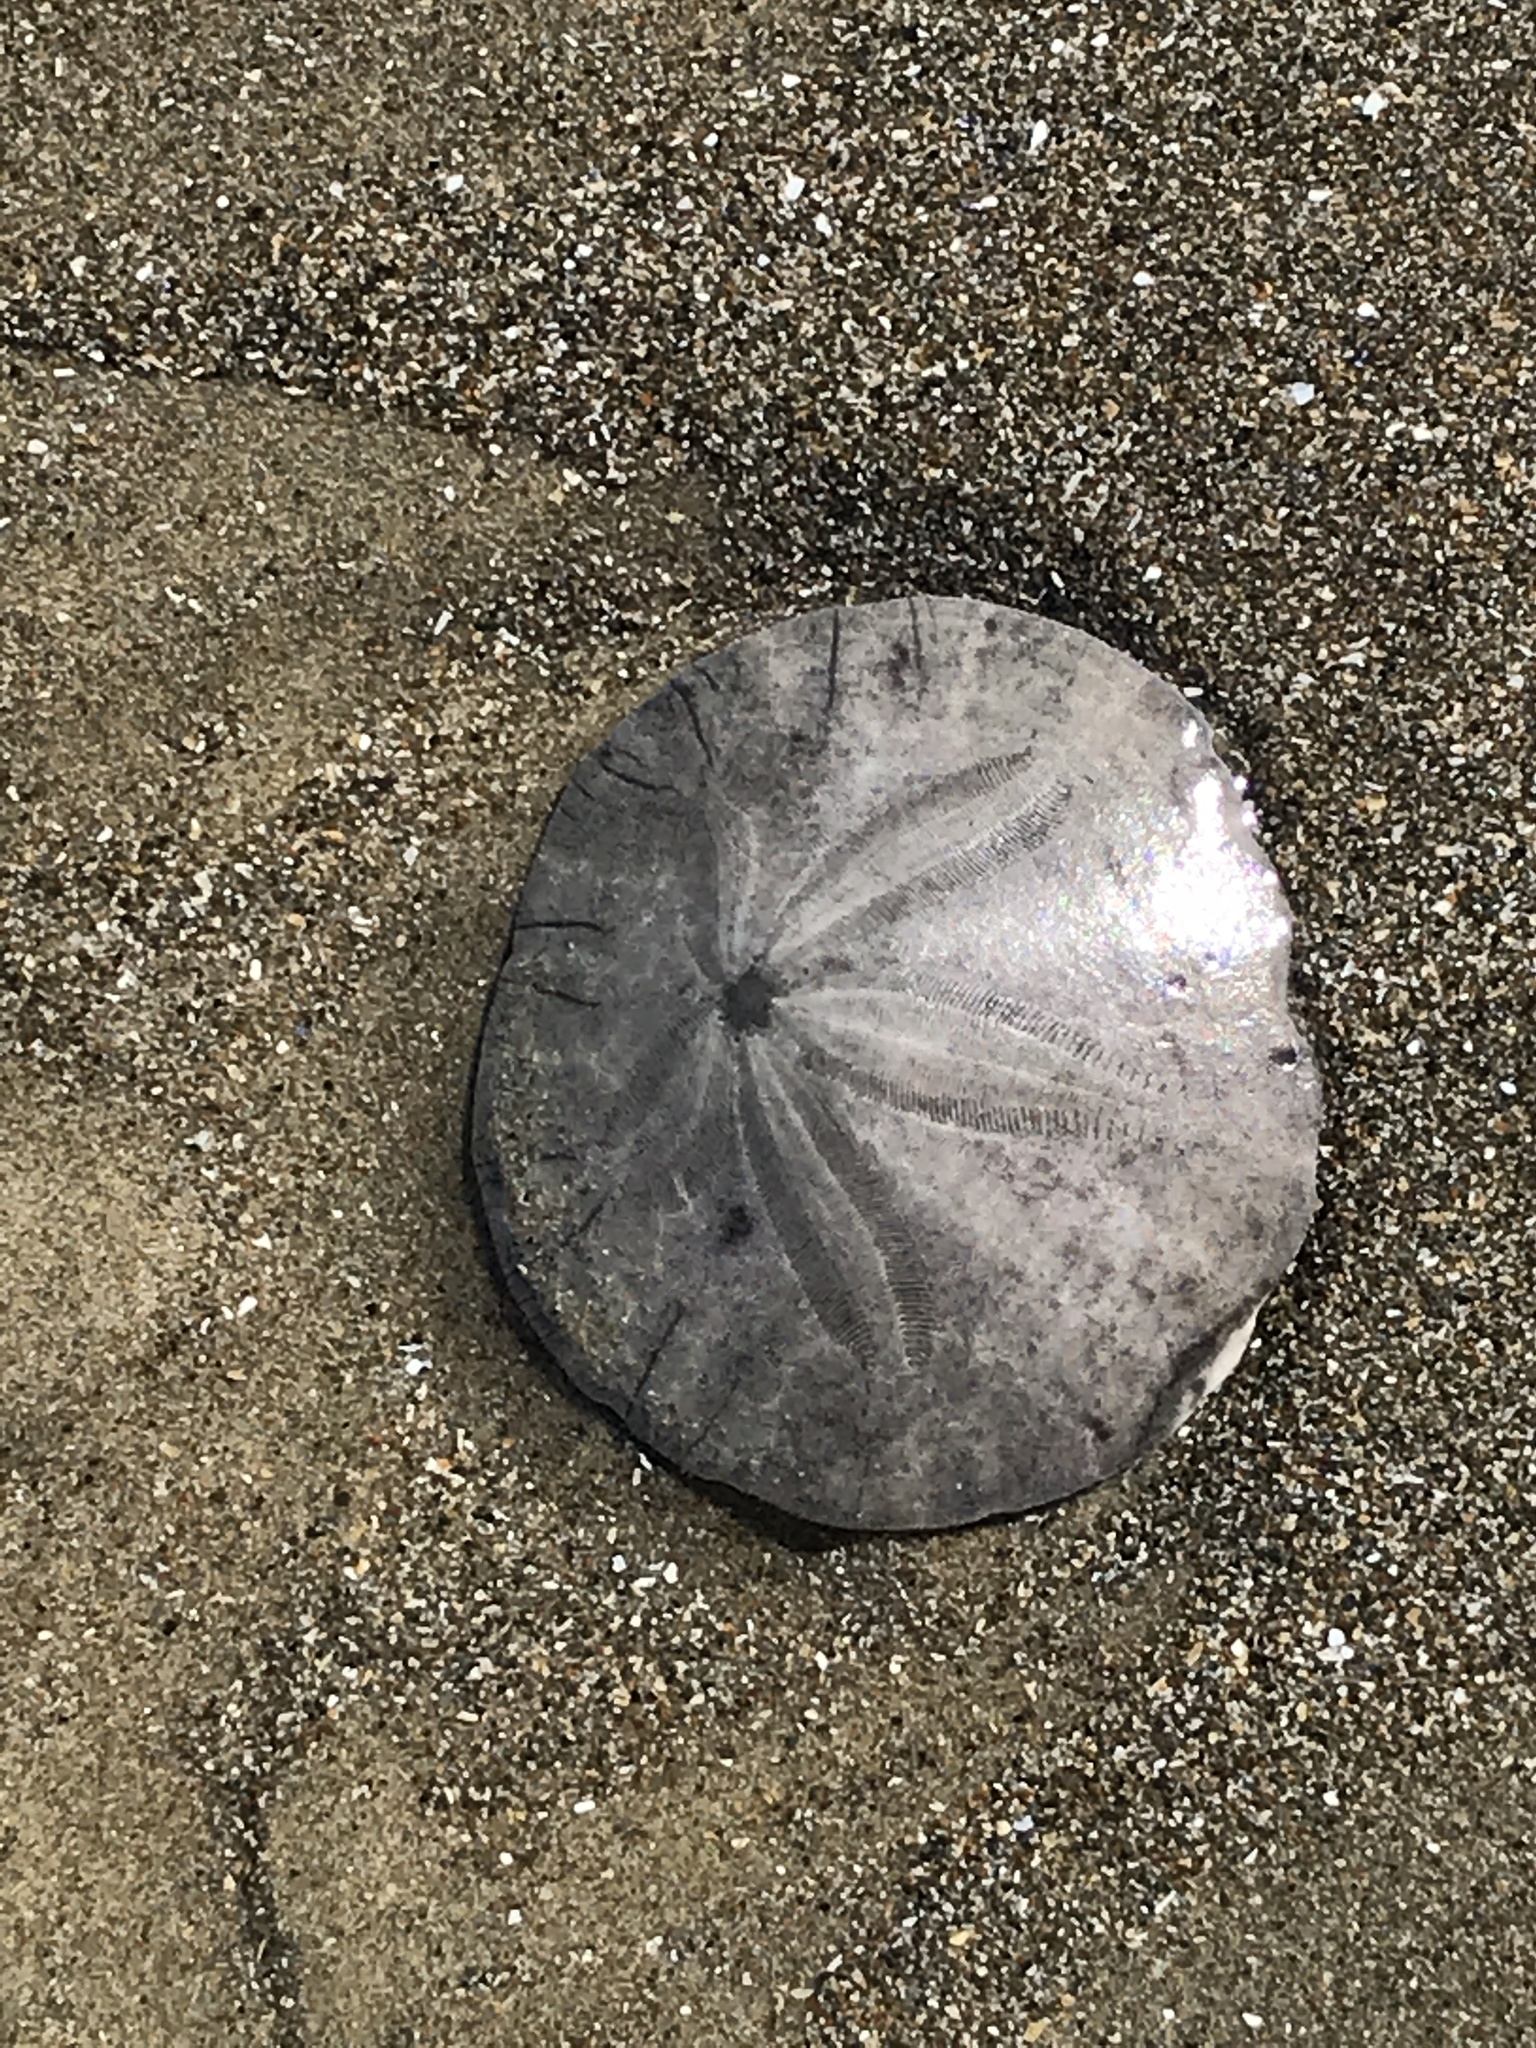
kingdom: Animalia
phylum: Echinodermata
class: Echinoidea
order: Echinolampadacea
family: Dendrasteridae
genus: Dendraster
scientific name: Dendraster excentricus
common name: Eccentric sand dollar sea urchin
